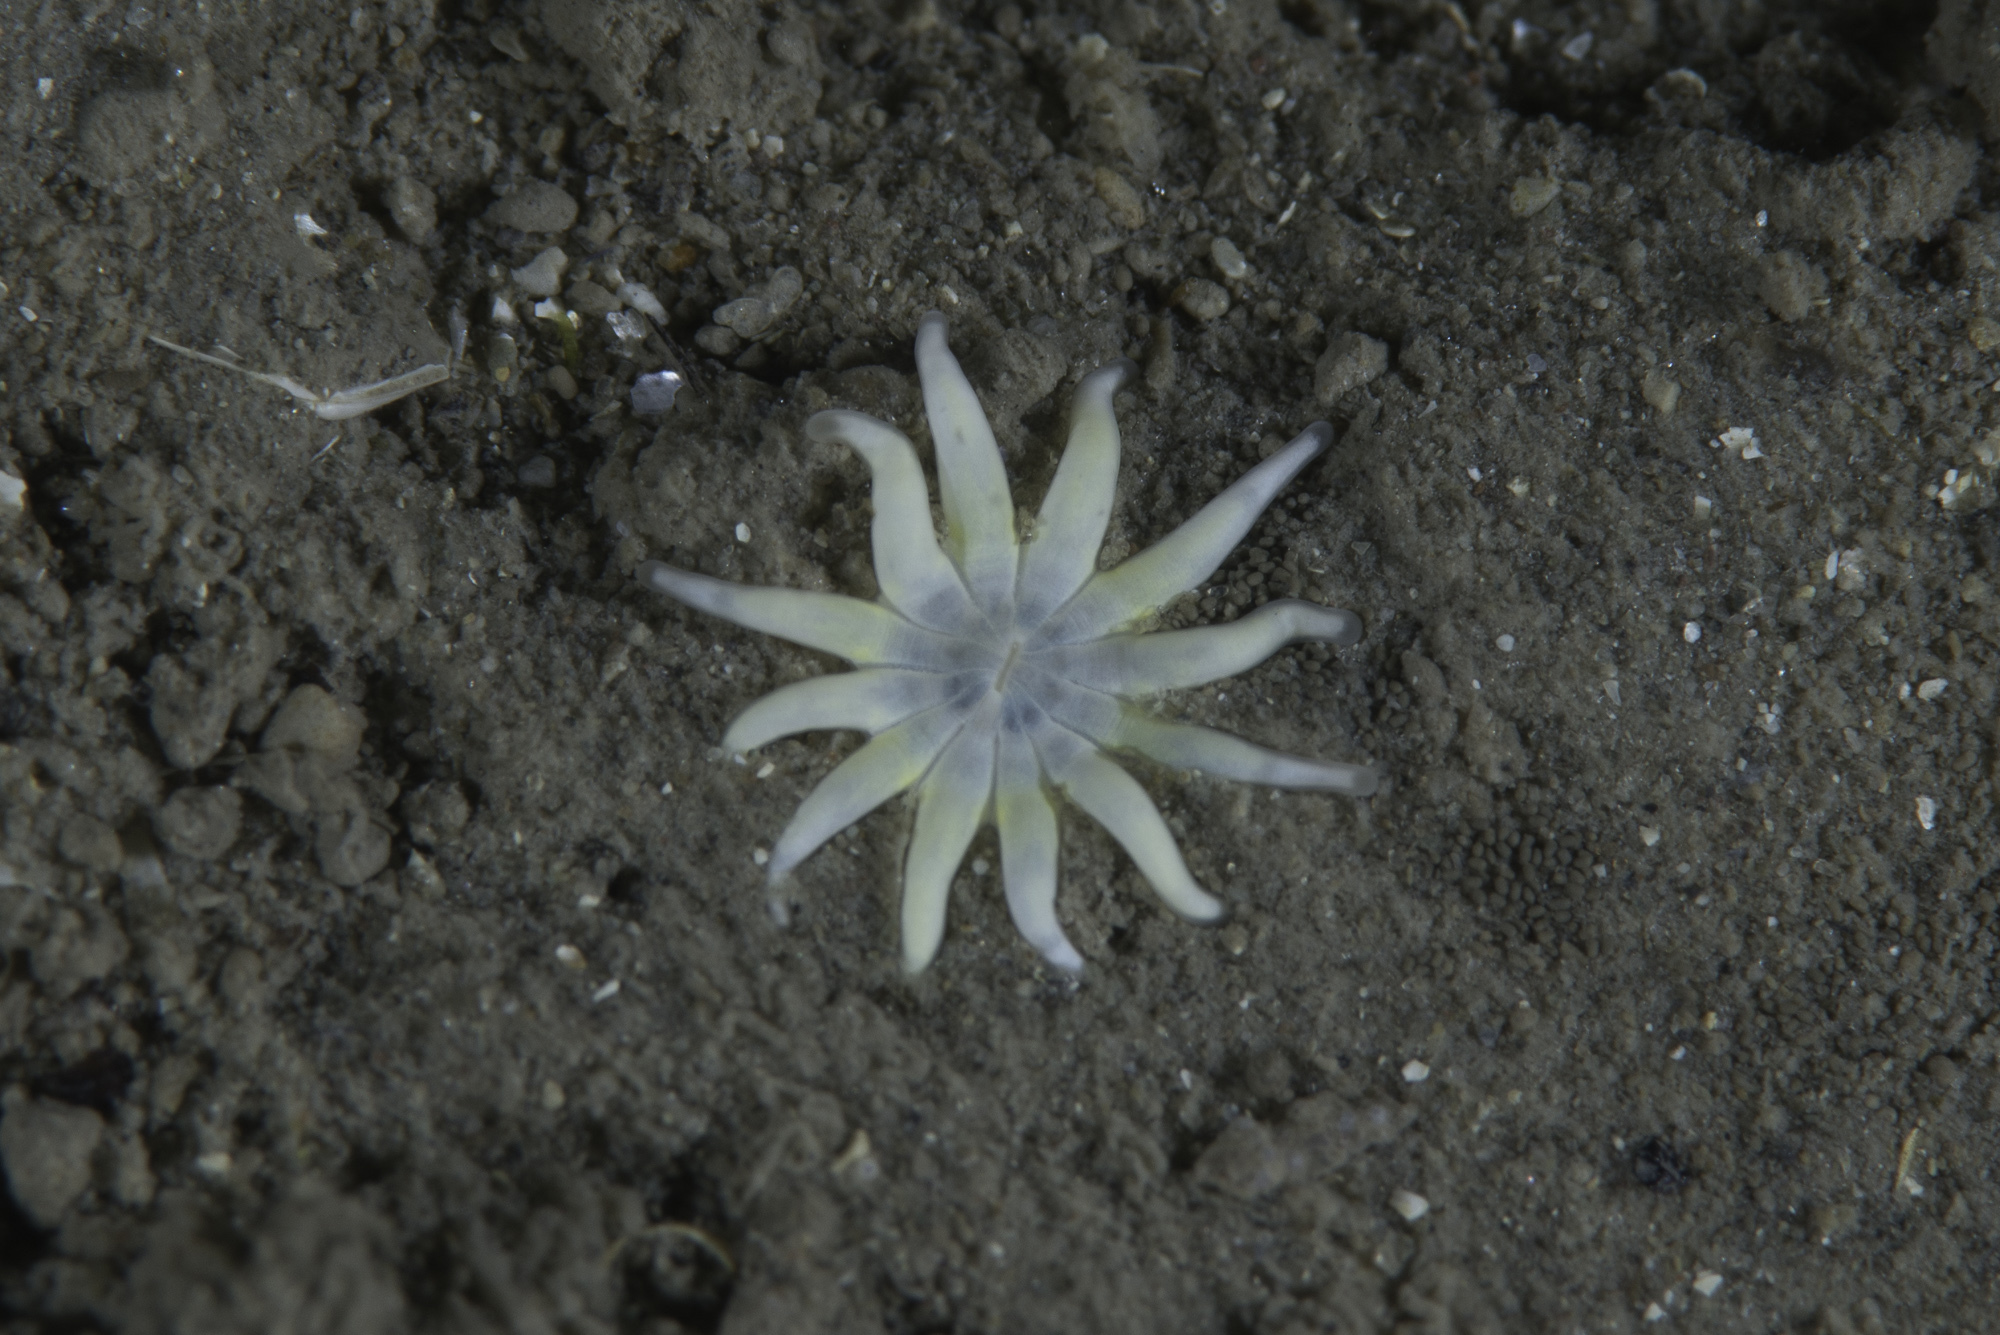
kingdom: Animalia
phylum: Cnidaria
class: Anthozoa
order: Actiniaria
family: Halcampidae
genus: Halcampa
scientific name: Halcampa chrysanthellum
